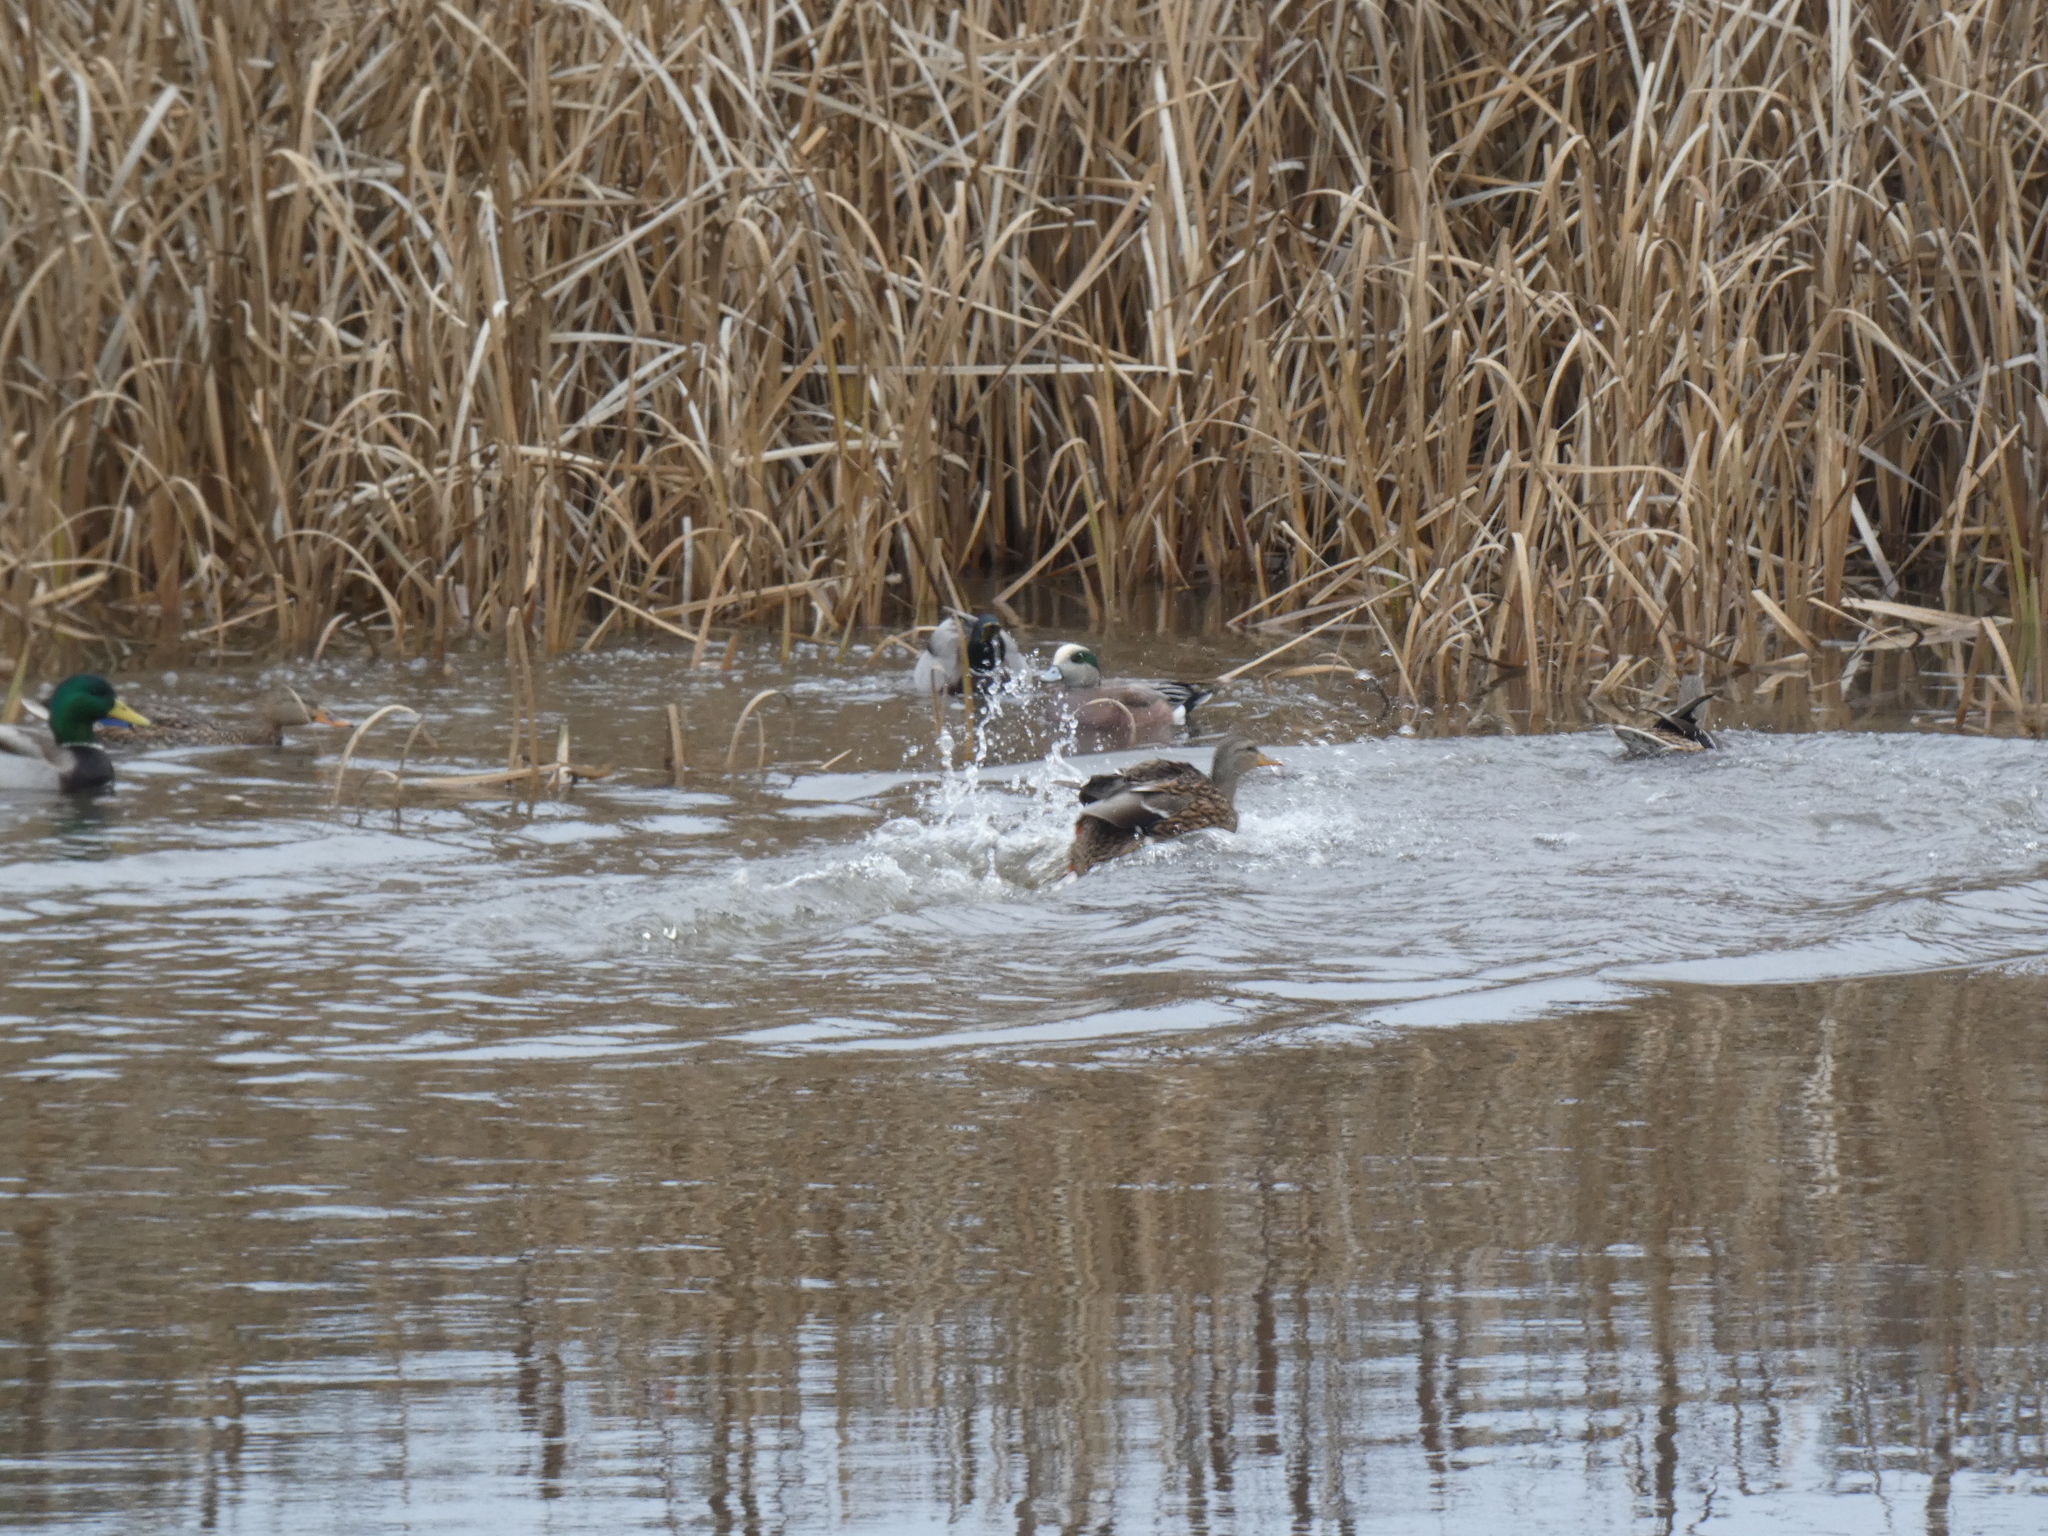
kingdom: Animalia
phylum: Chordata
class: Aves
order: Anseriformes
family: Anatidae
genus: Anas
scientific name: Anas platyrhynchos
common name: Mallard
